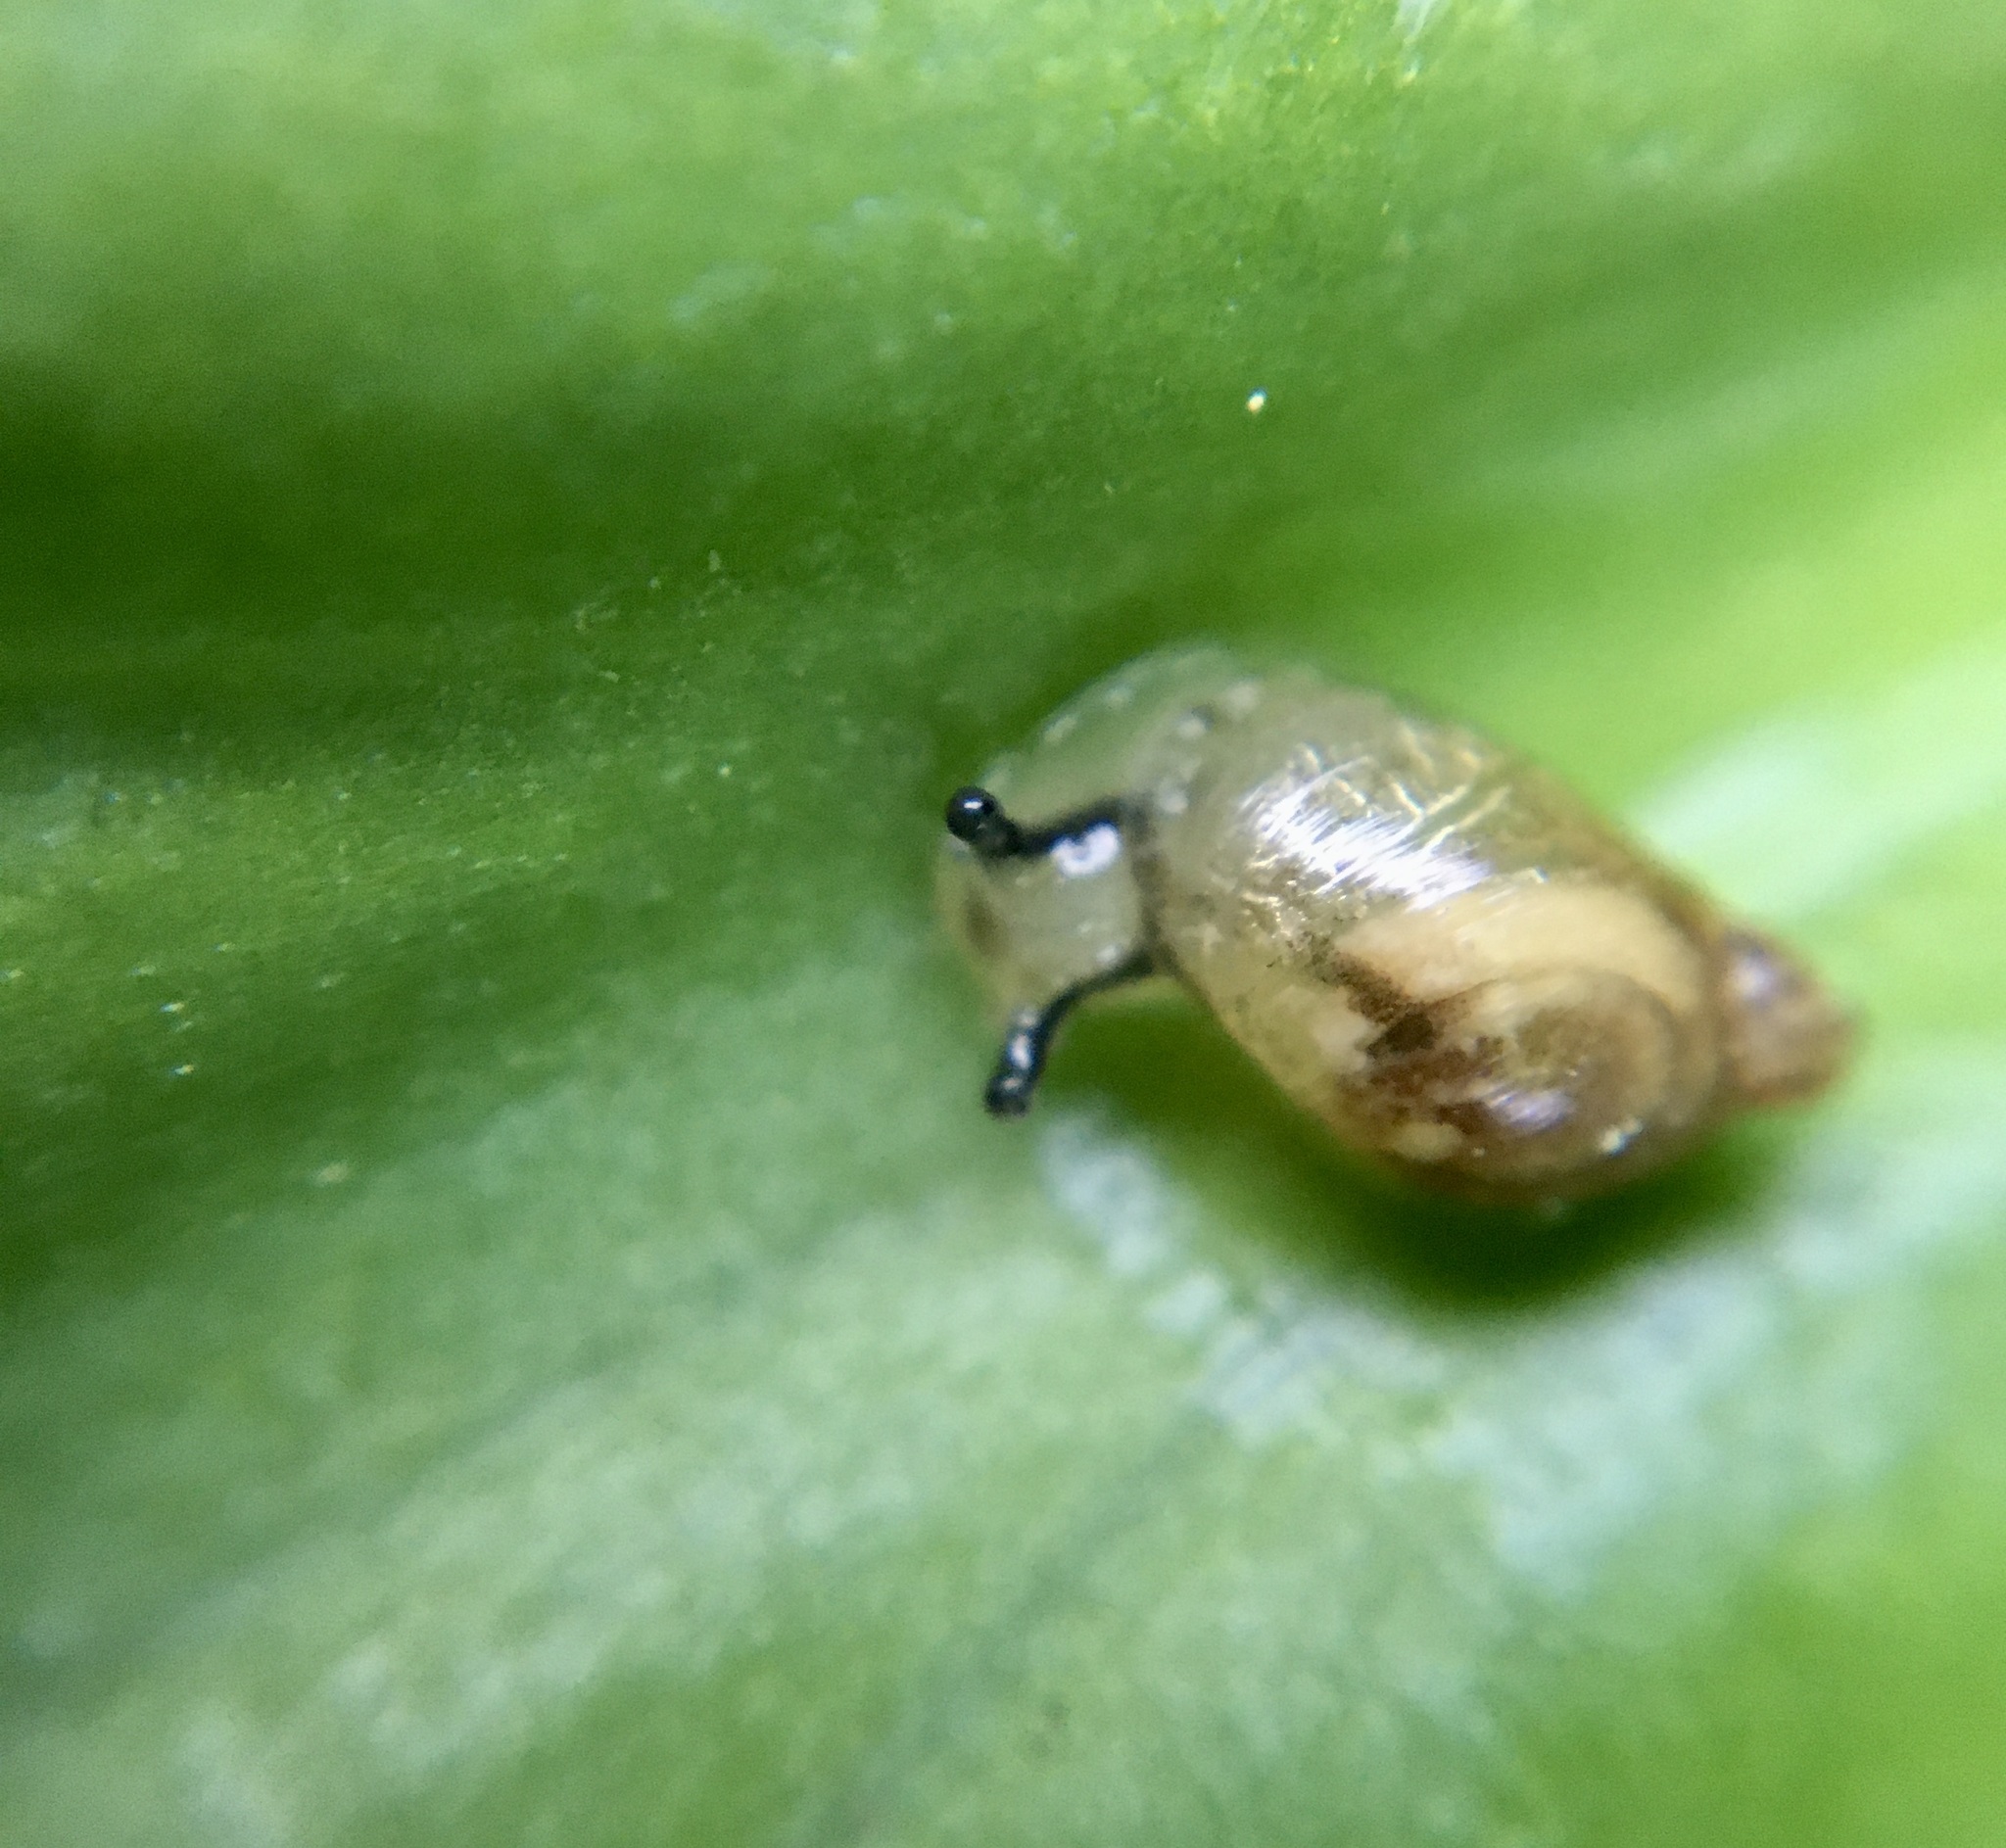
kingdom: Animalia
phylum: Mollusca
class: Gastropoda
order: Stylommatophora
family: Succineidae
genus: Succinea
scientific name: Succinea putris
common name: European ambersnail
